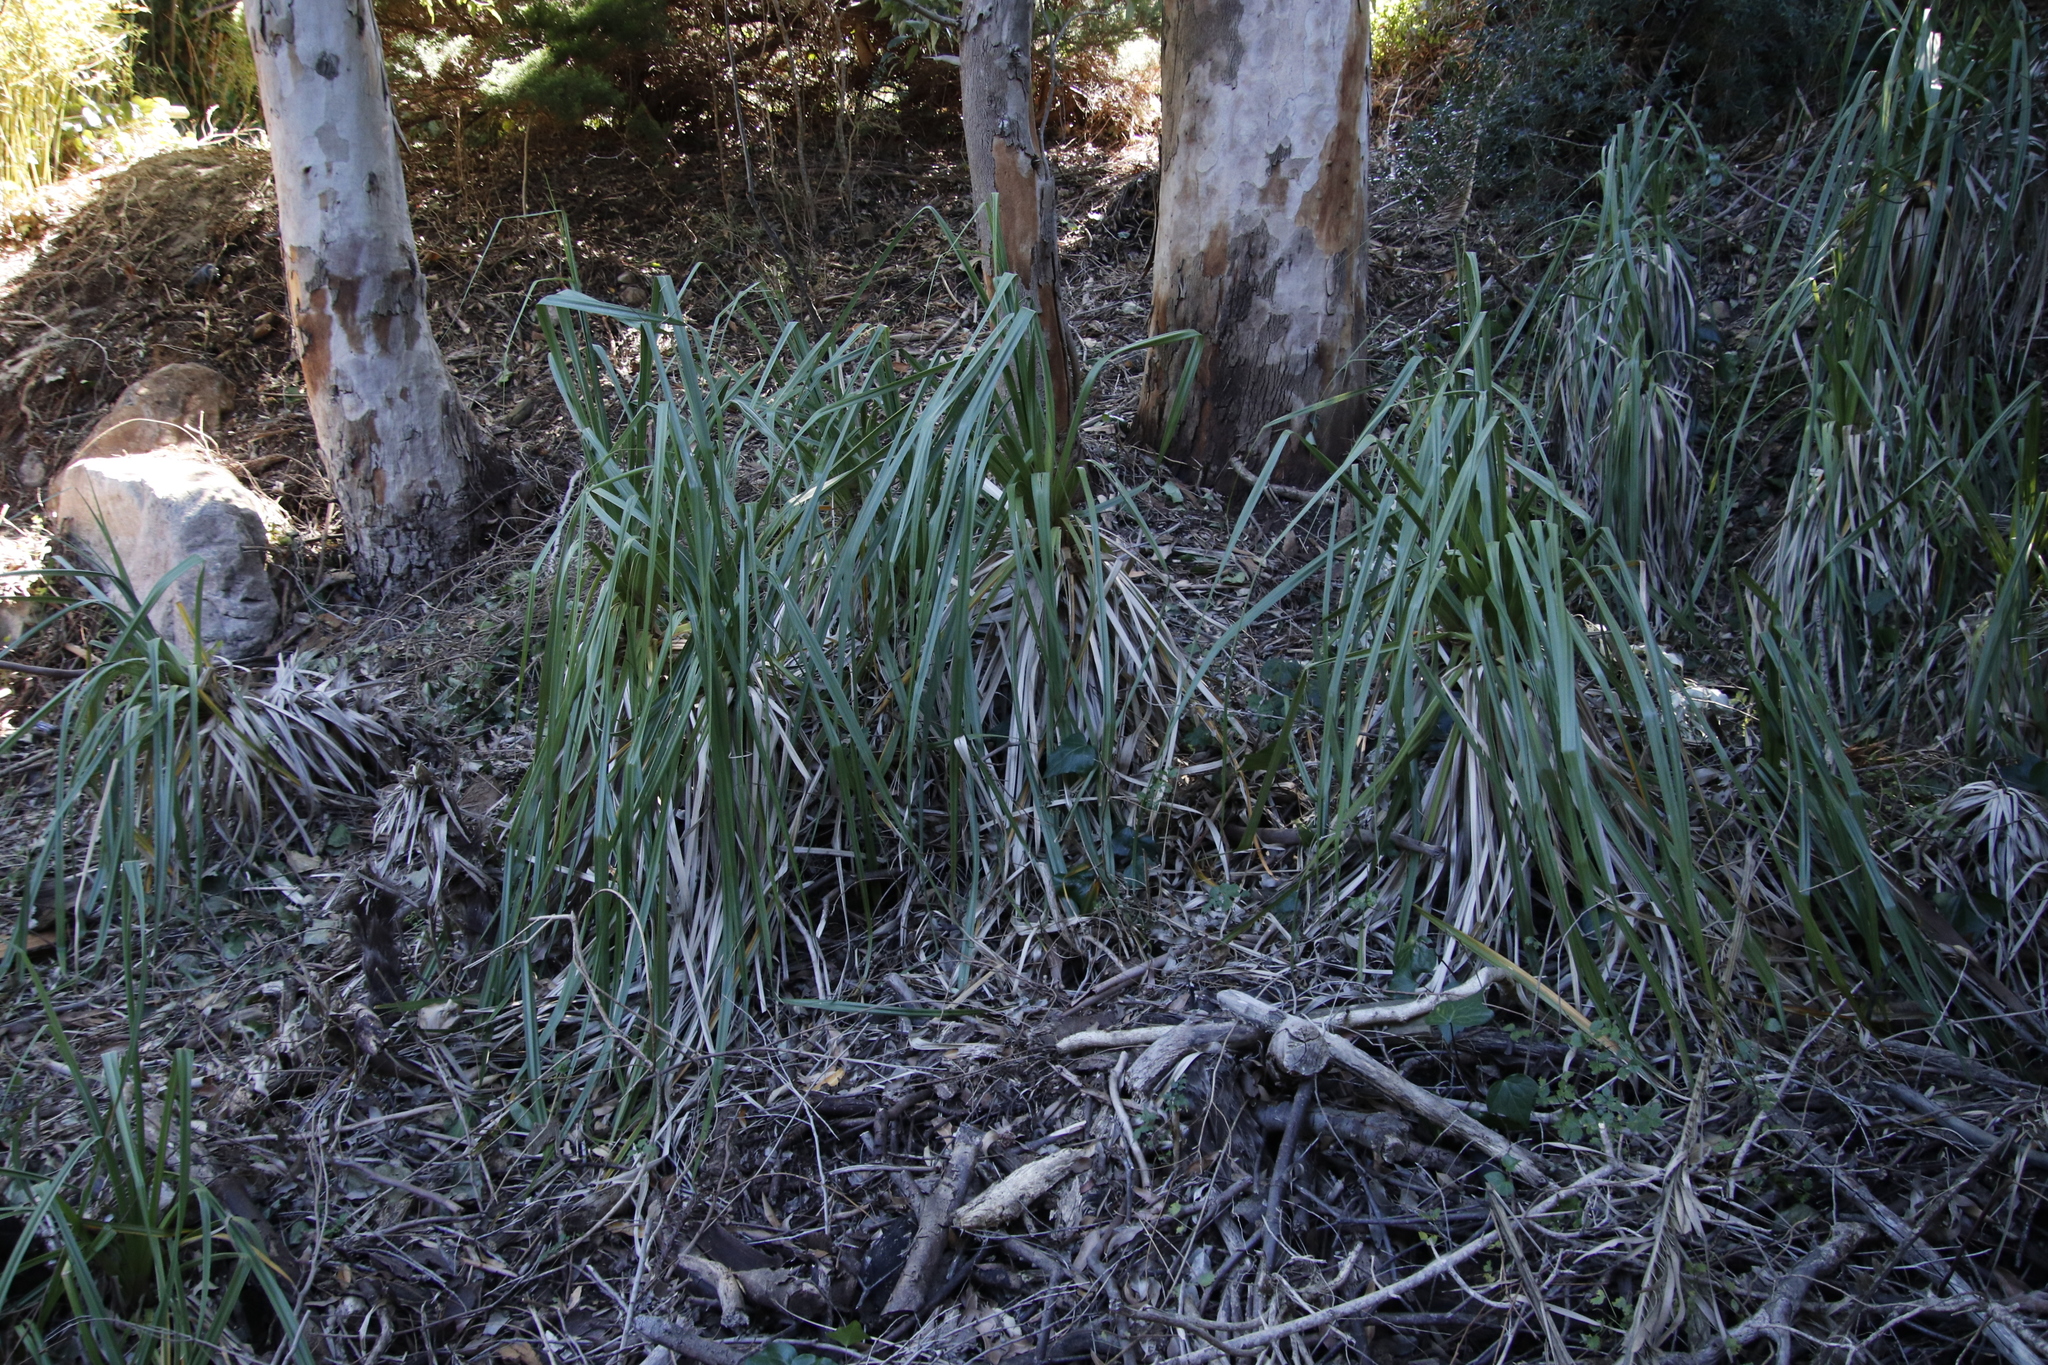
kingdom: Plantae
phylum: Tracheophyta
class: Liliopsida
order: Poales
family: Thurniaceae
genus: Prionium
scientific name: Prionium serratum
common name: Palmiet
